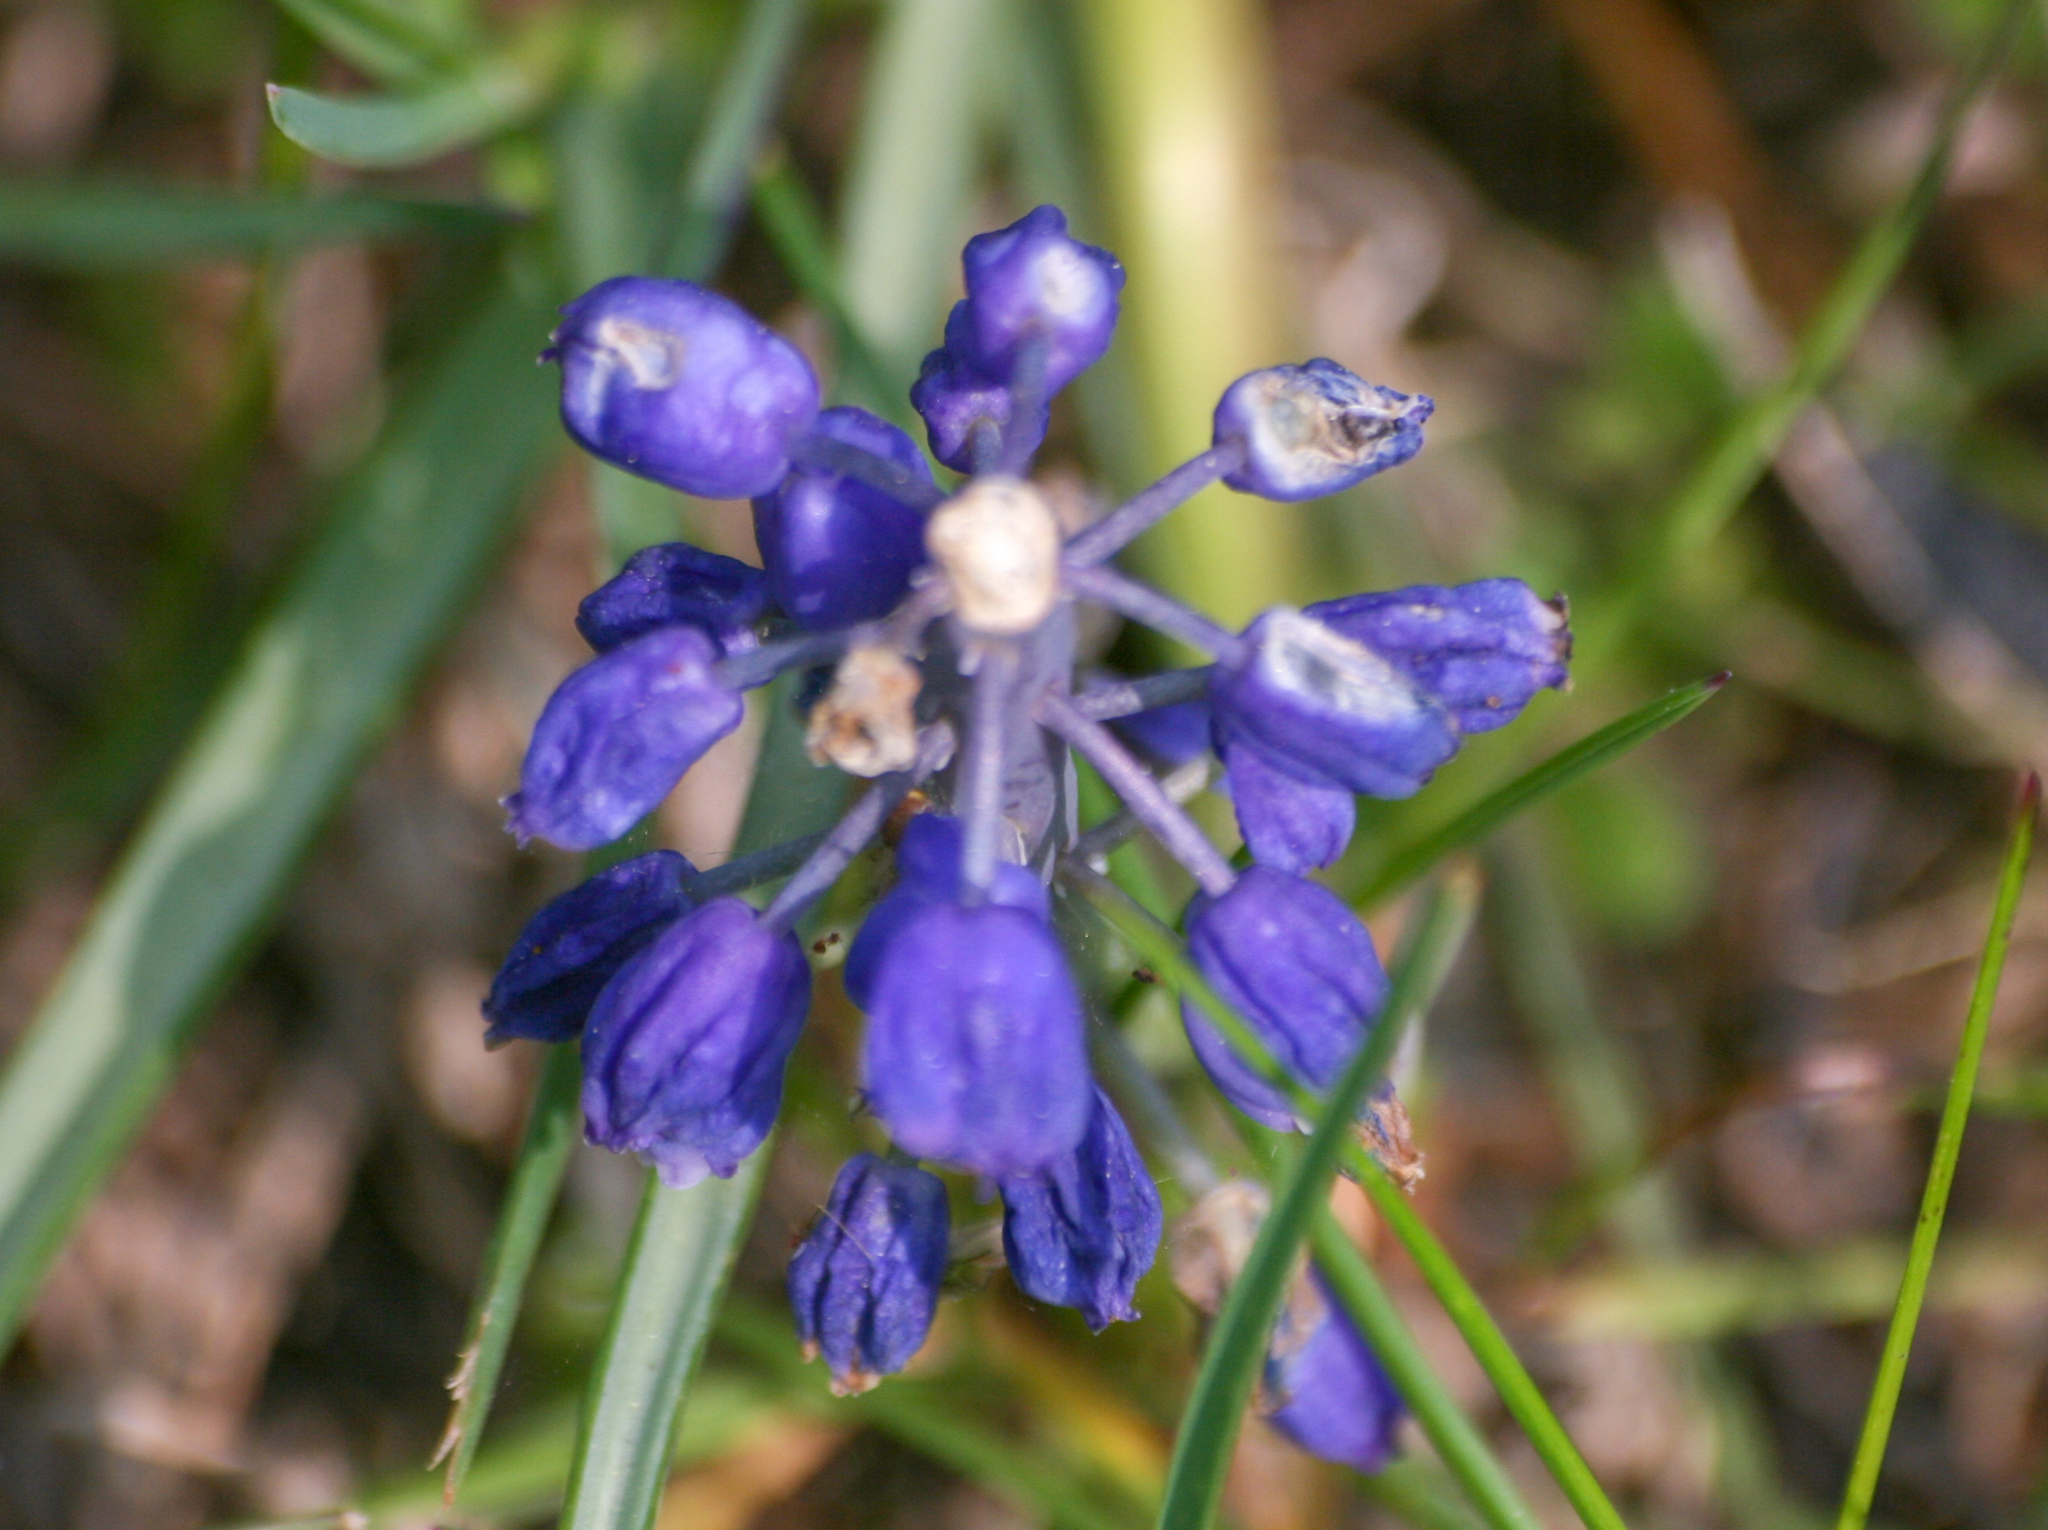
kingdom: Plantae
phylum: Tracheophyta
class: Liliopsida
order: Asparagales
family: Asparagaceae
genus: Muscari
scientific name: Muscari neglectum
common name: Grape-hyacinth
